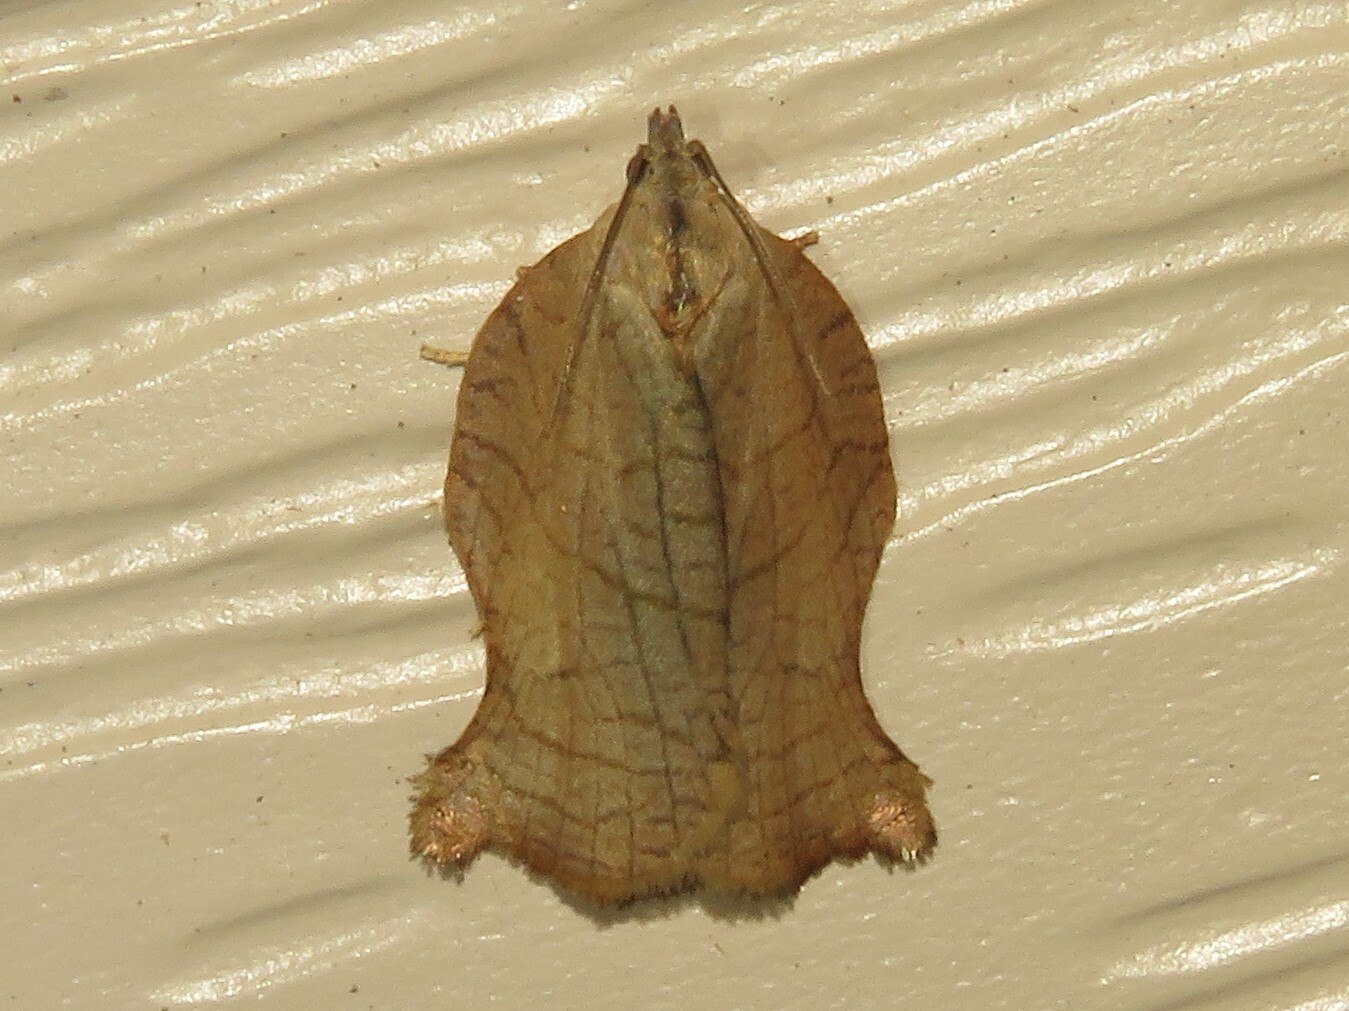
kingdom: Animalia
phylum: Arthropoda
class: Insecta
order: Lepidoptera
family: Tortricidae
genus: Archips
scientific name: Archips purpurana
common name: Omnivorous leafroller
